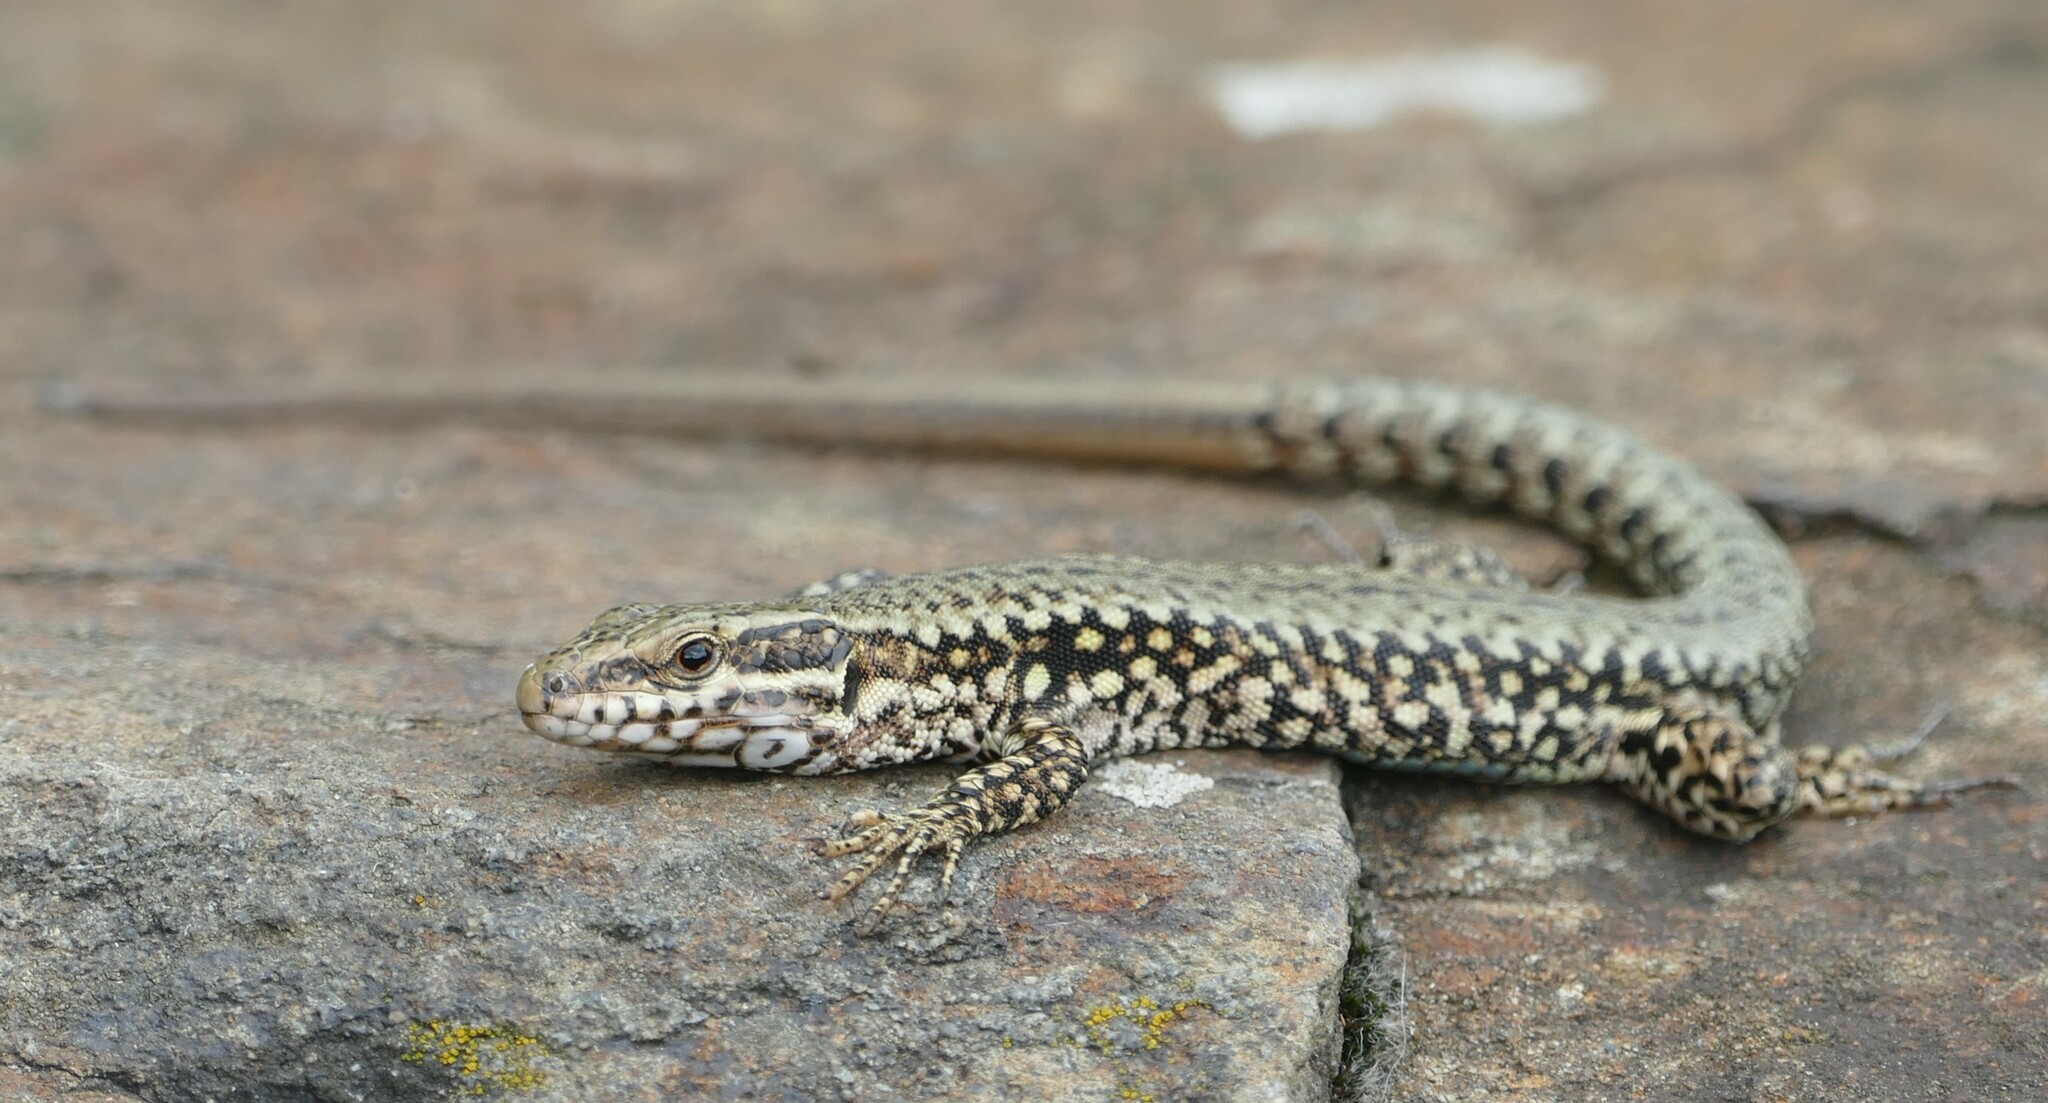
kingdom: Animalia
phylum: Chordata
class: Squamata
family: Lacertidae
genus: Podarcis
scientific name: Podarcis muralis
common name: Common wall lizard
